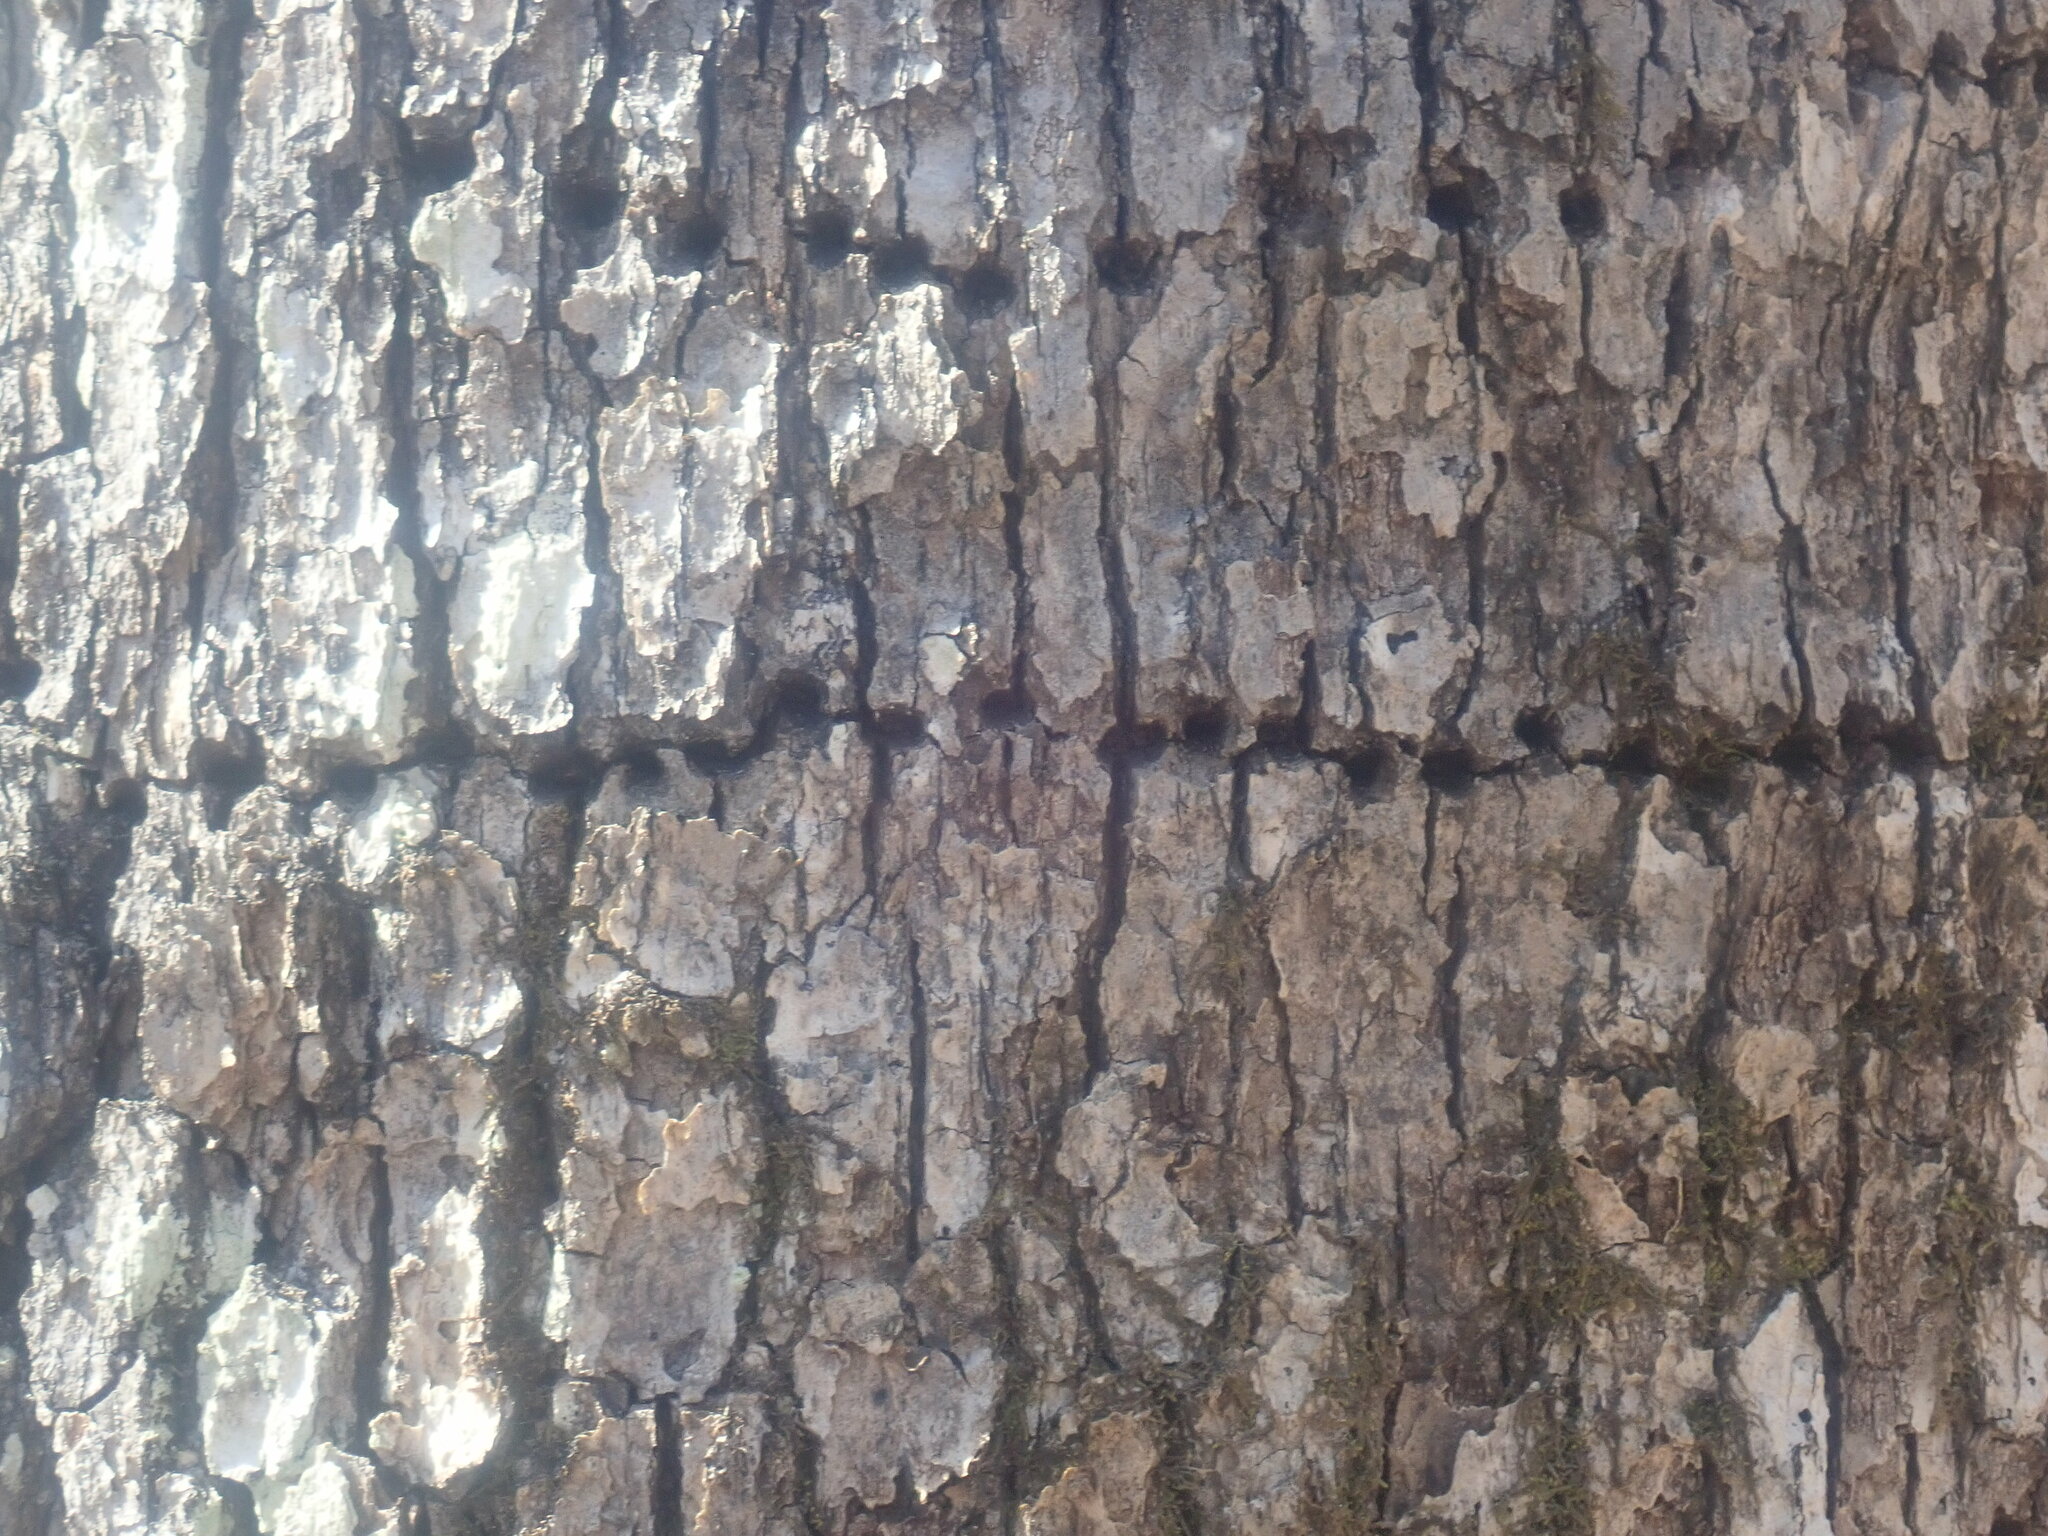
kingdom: Animalia
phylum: Chordata
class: Aves
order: Piciformes
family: Picidae
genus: Sphyrapicus
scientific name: Sphyrapicus varius
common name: Yellow-bellied sapsucker
